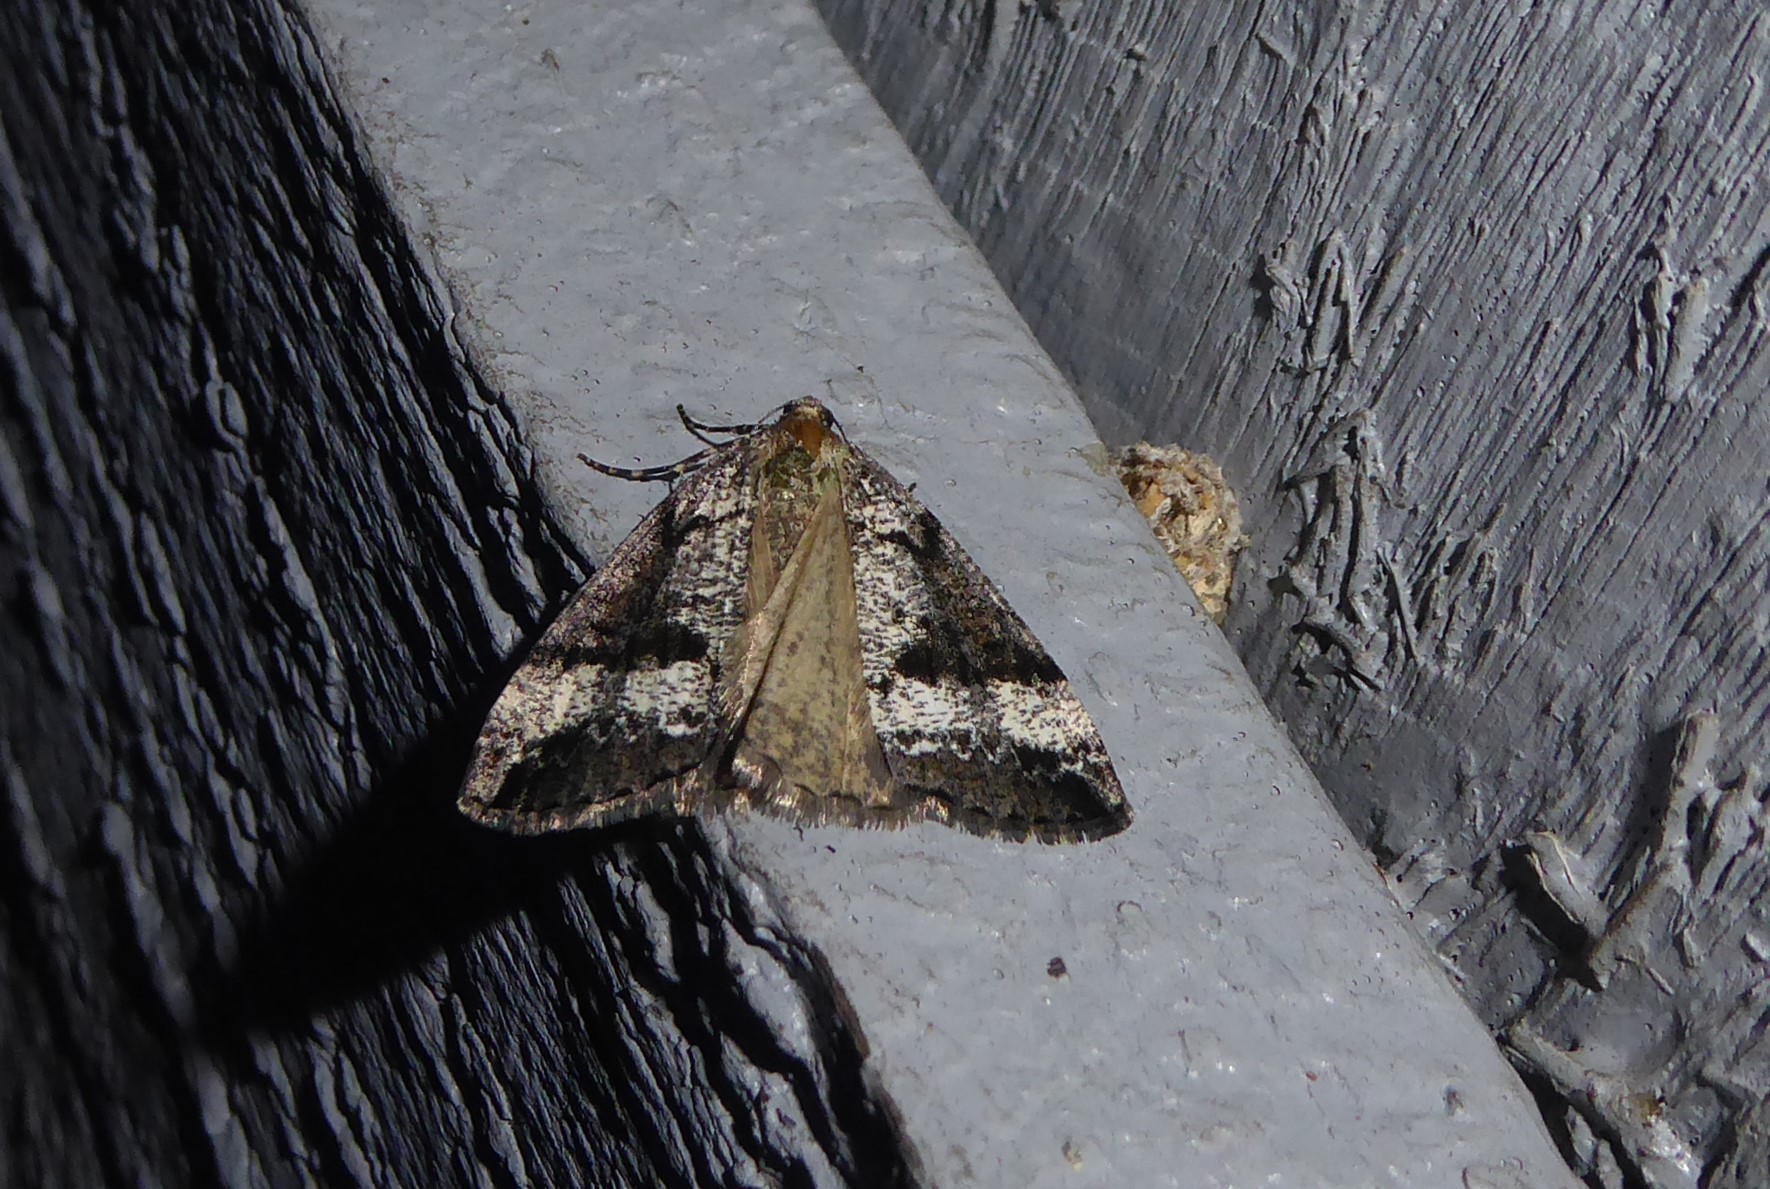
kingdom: Animalia
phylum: Arthropoda
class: Insecta
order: Lepidoptera
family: Geometridae
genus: Pseudocoremia
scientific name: Pseudocoremia leucelaea
